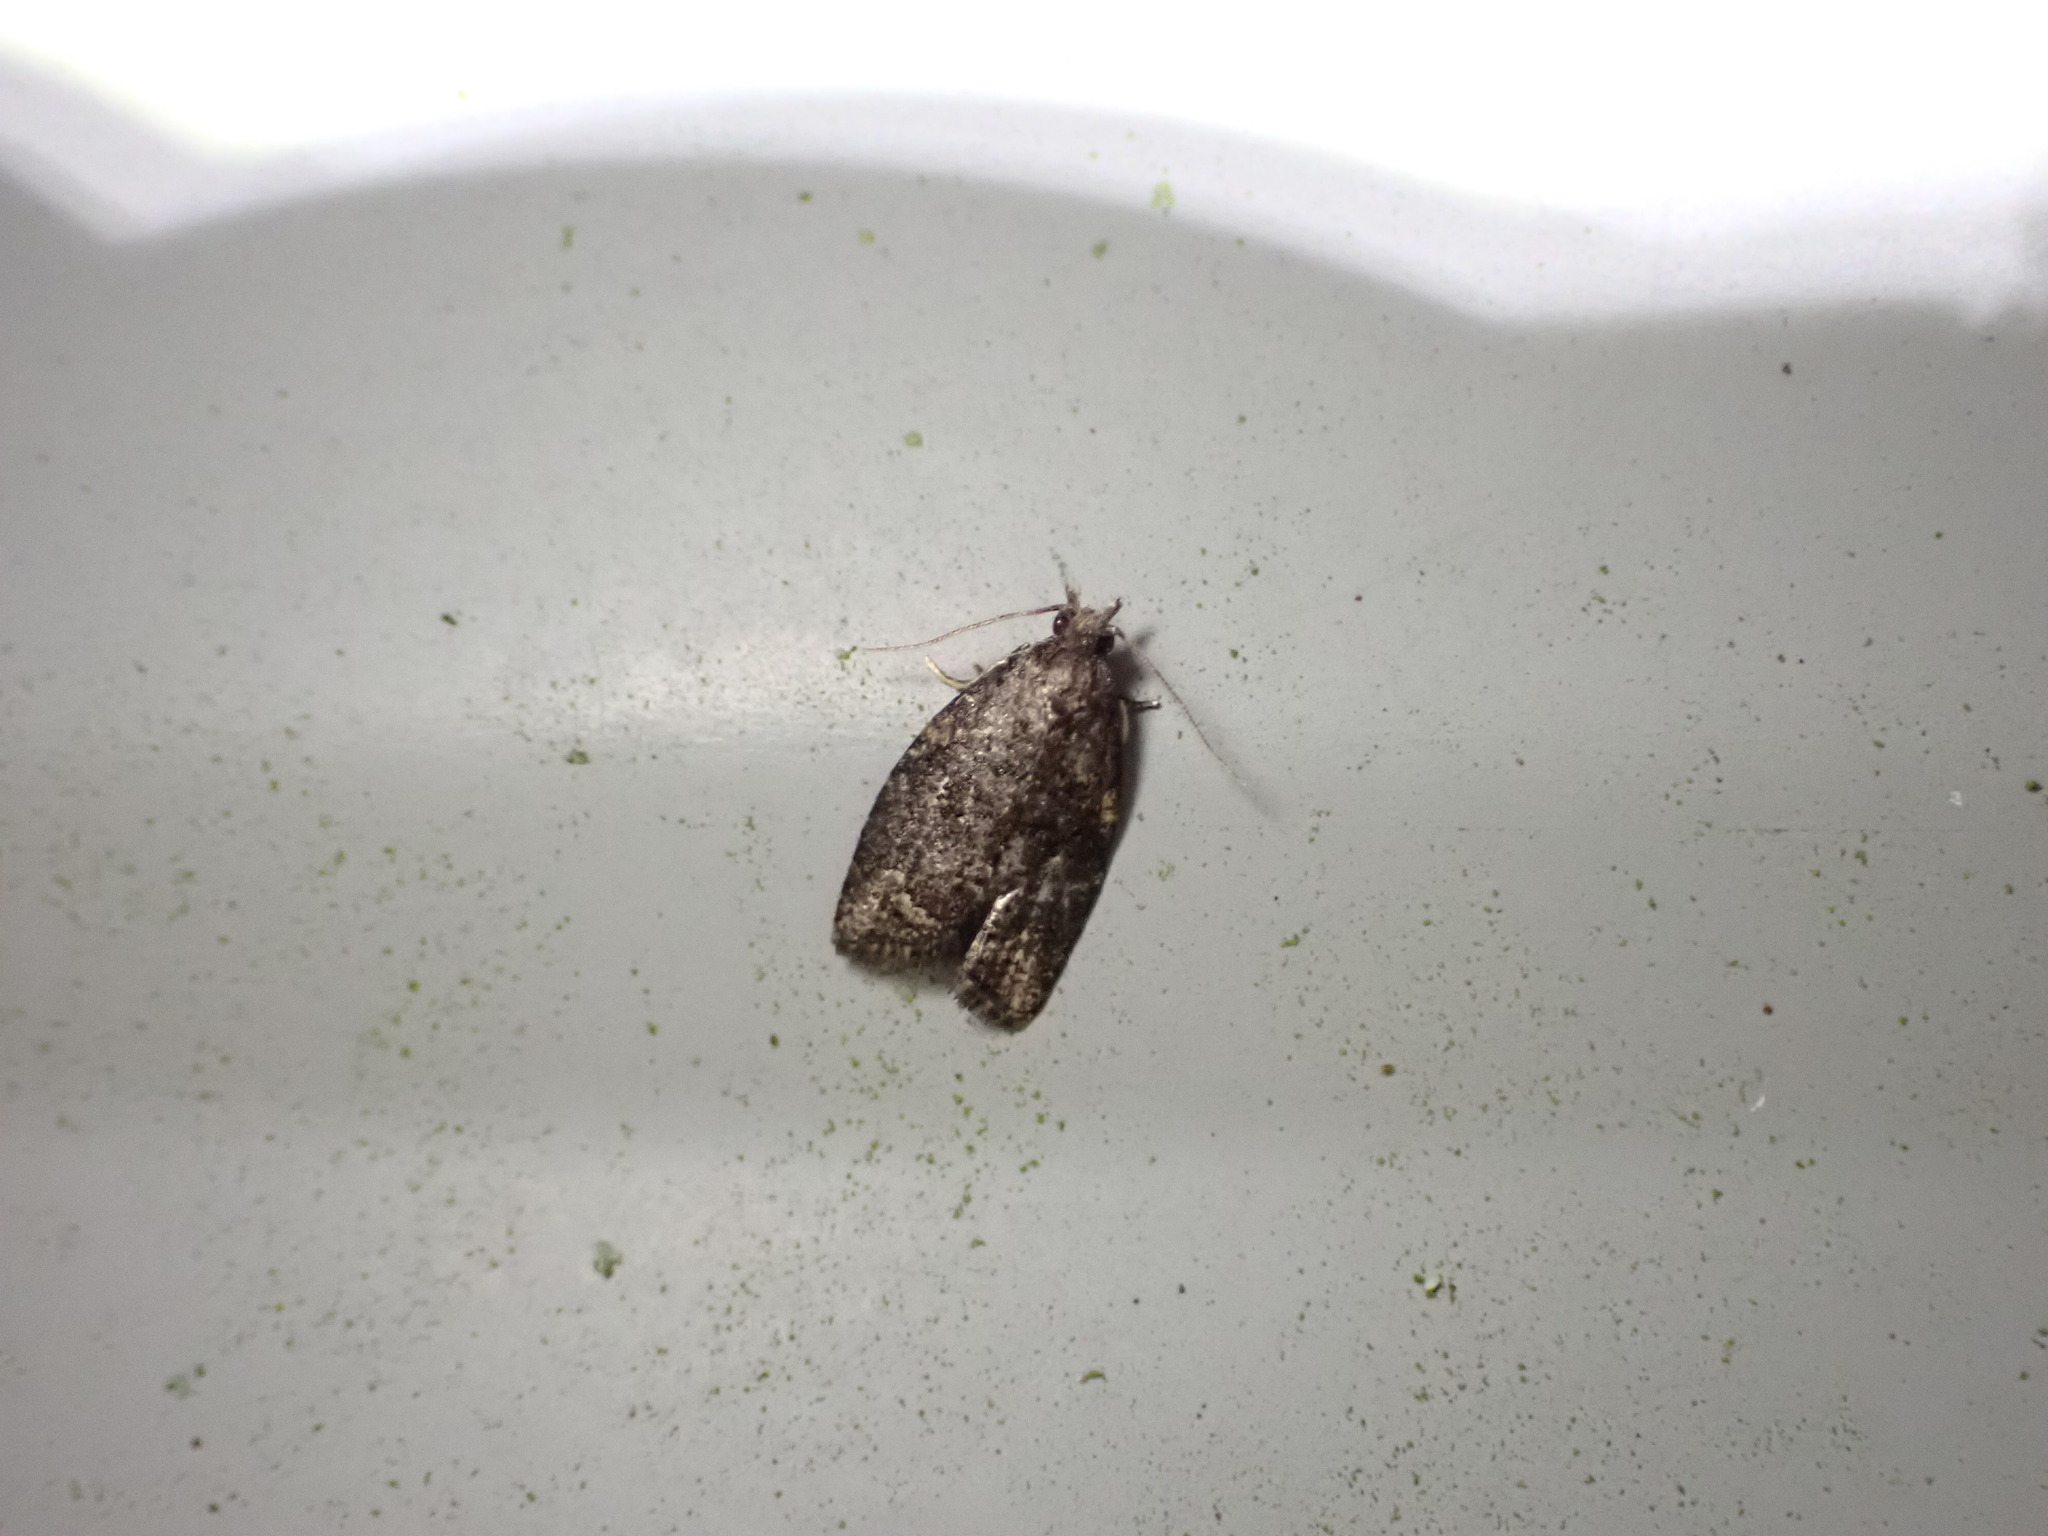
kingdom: Animalia
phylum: Arthropoda
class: Insecta
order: Lepidoptera
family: Tortricidae
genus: Capua
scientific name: Capua intractana
